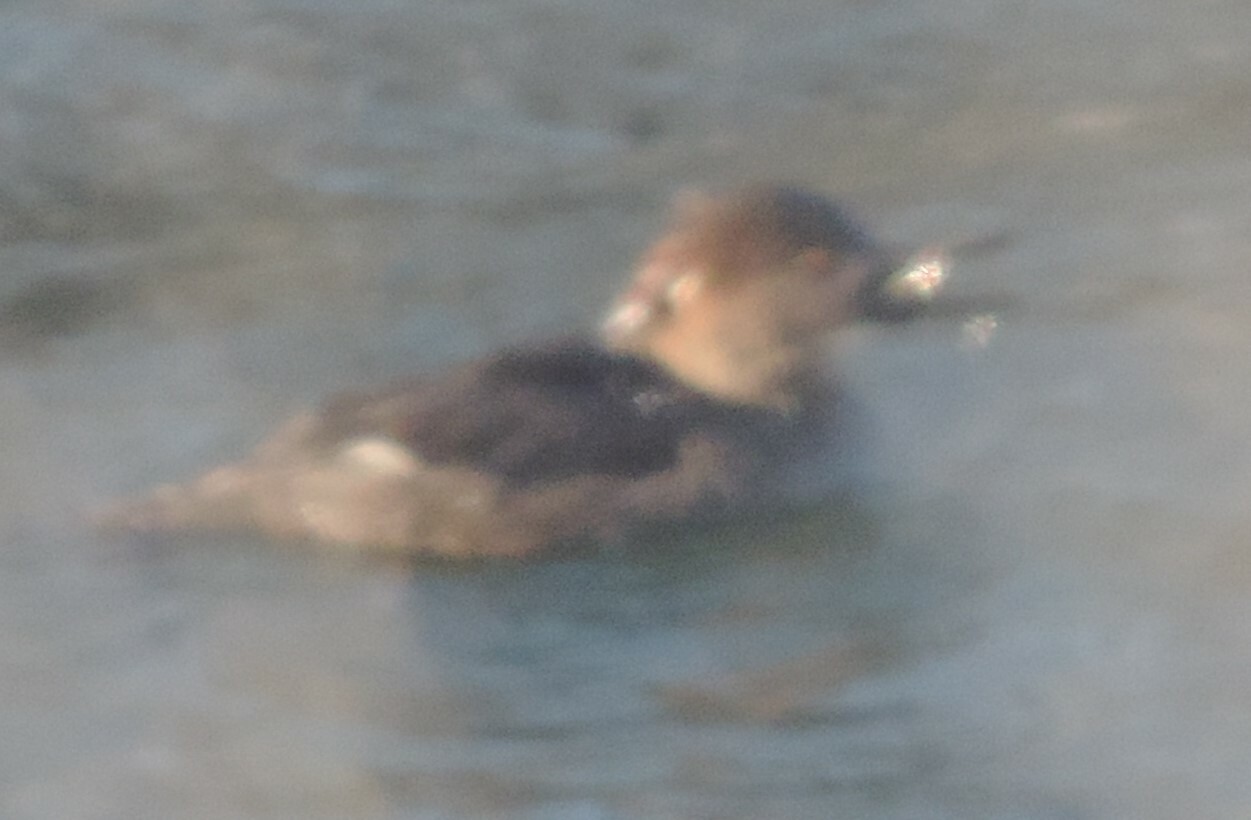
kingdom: Animalia
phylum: Chordata
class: Aves
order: Anseriformes
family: Anatidae
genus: Lophodytes
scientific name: Lophodytes cucullatus
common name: Hooded merganser
